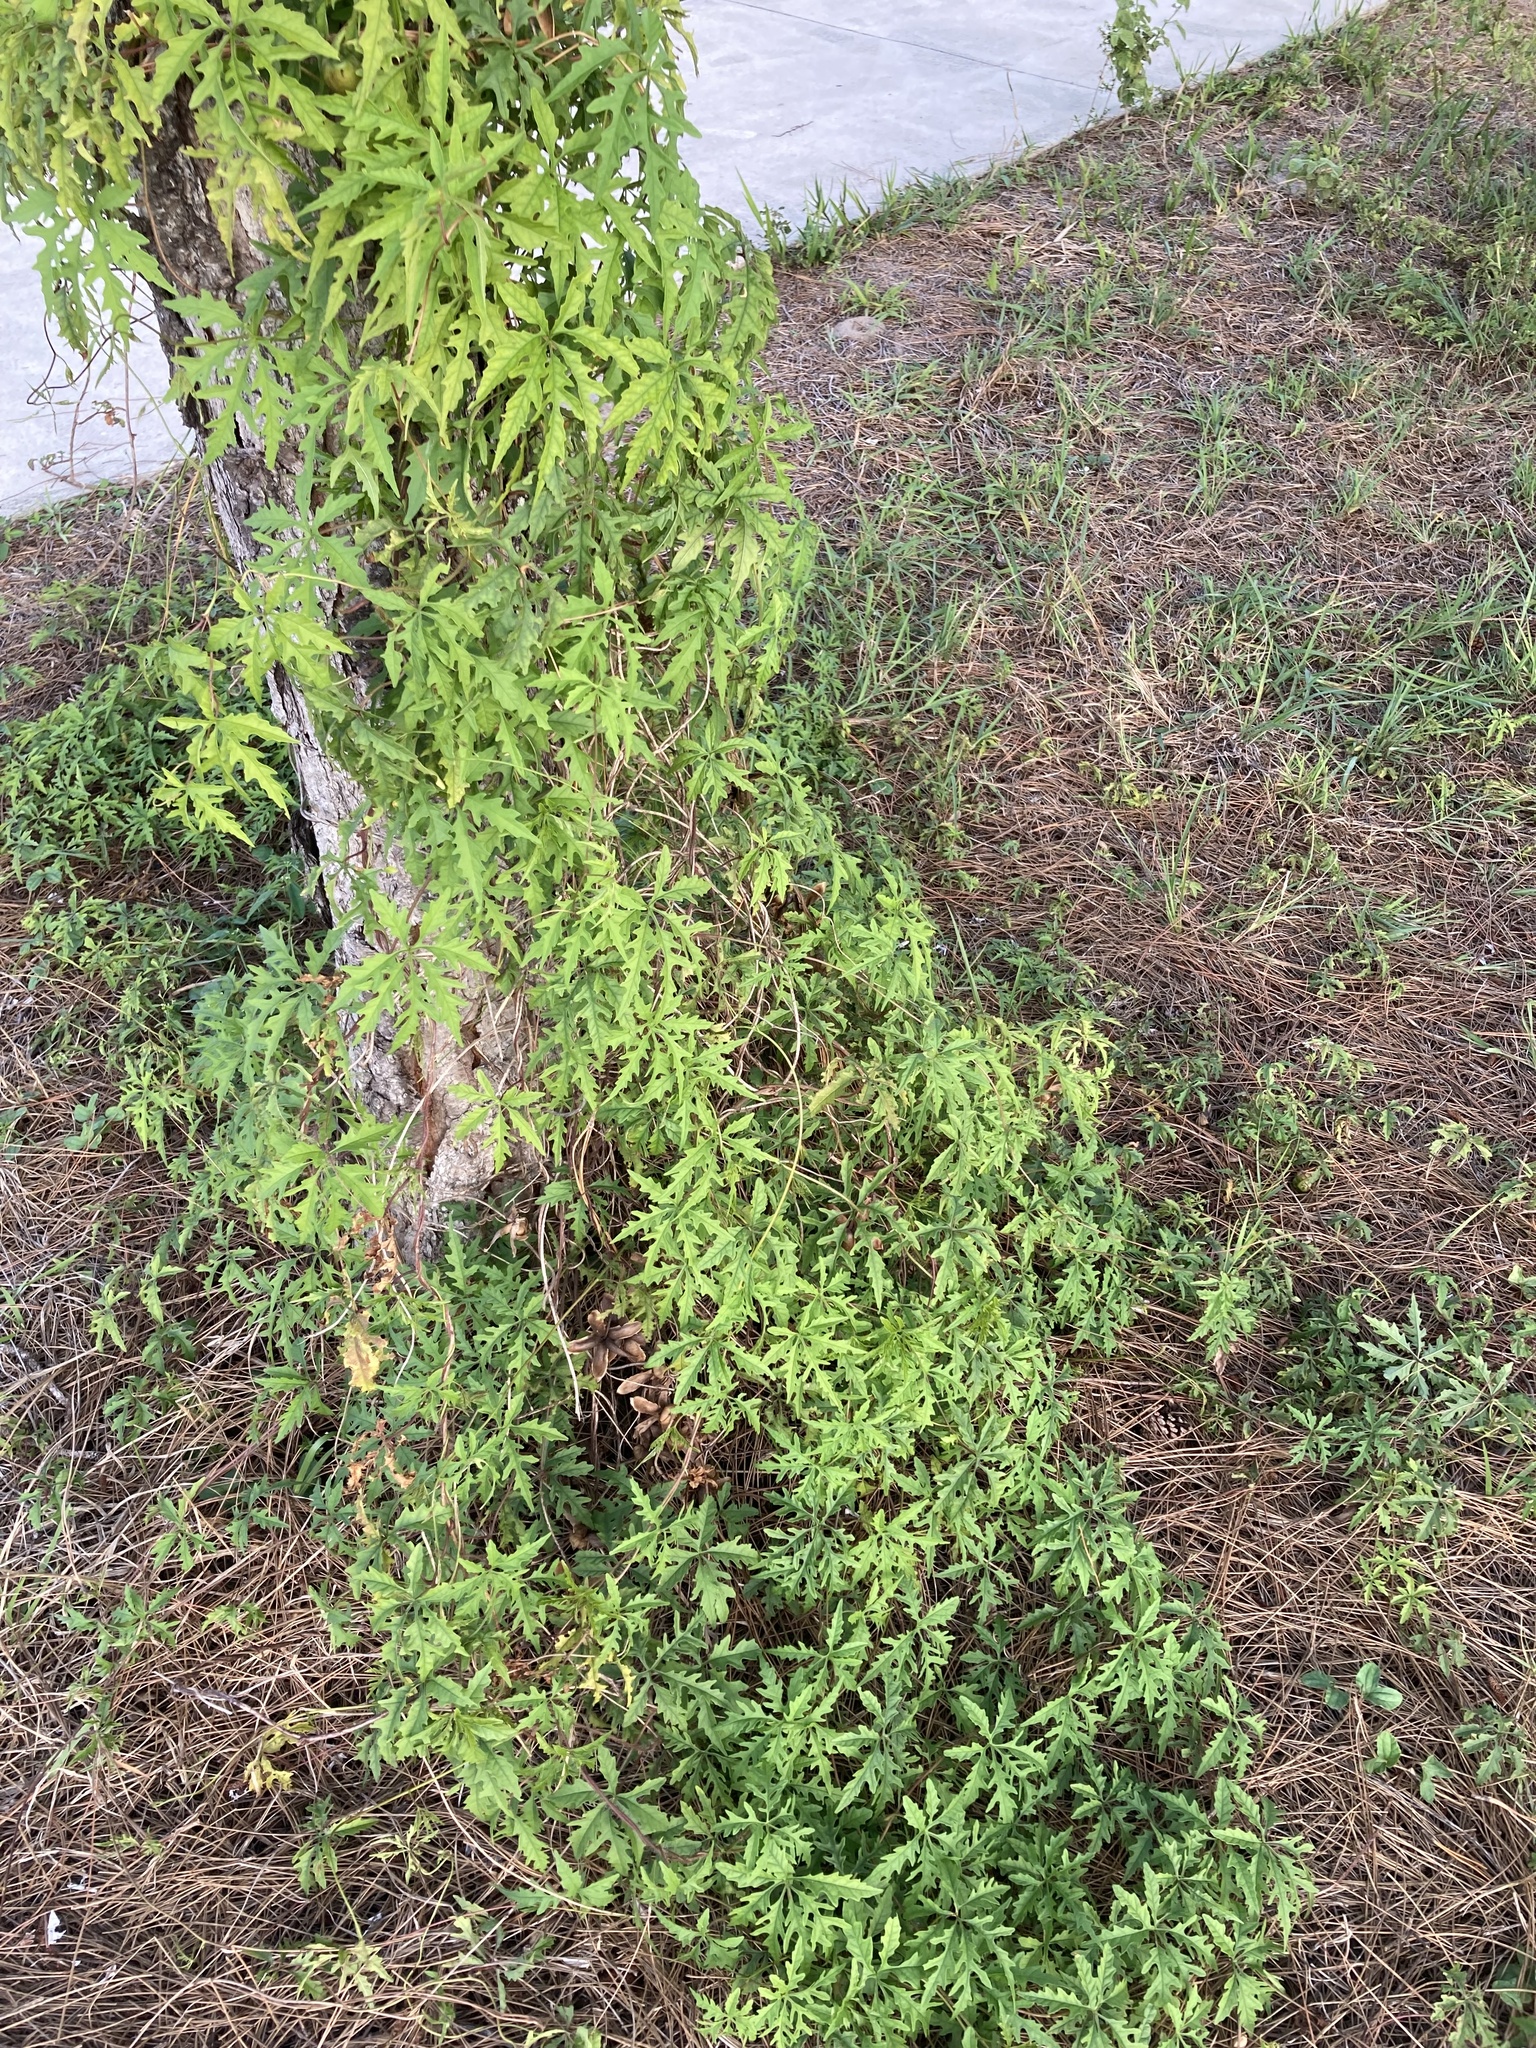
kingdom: Plantae
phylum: Tracheophyta
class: Magnoliopsida
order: Solanales
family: Convolvulaceae
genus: Distimake
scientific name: Distimake dissectus
